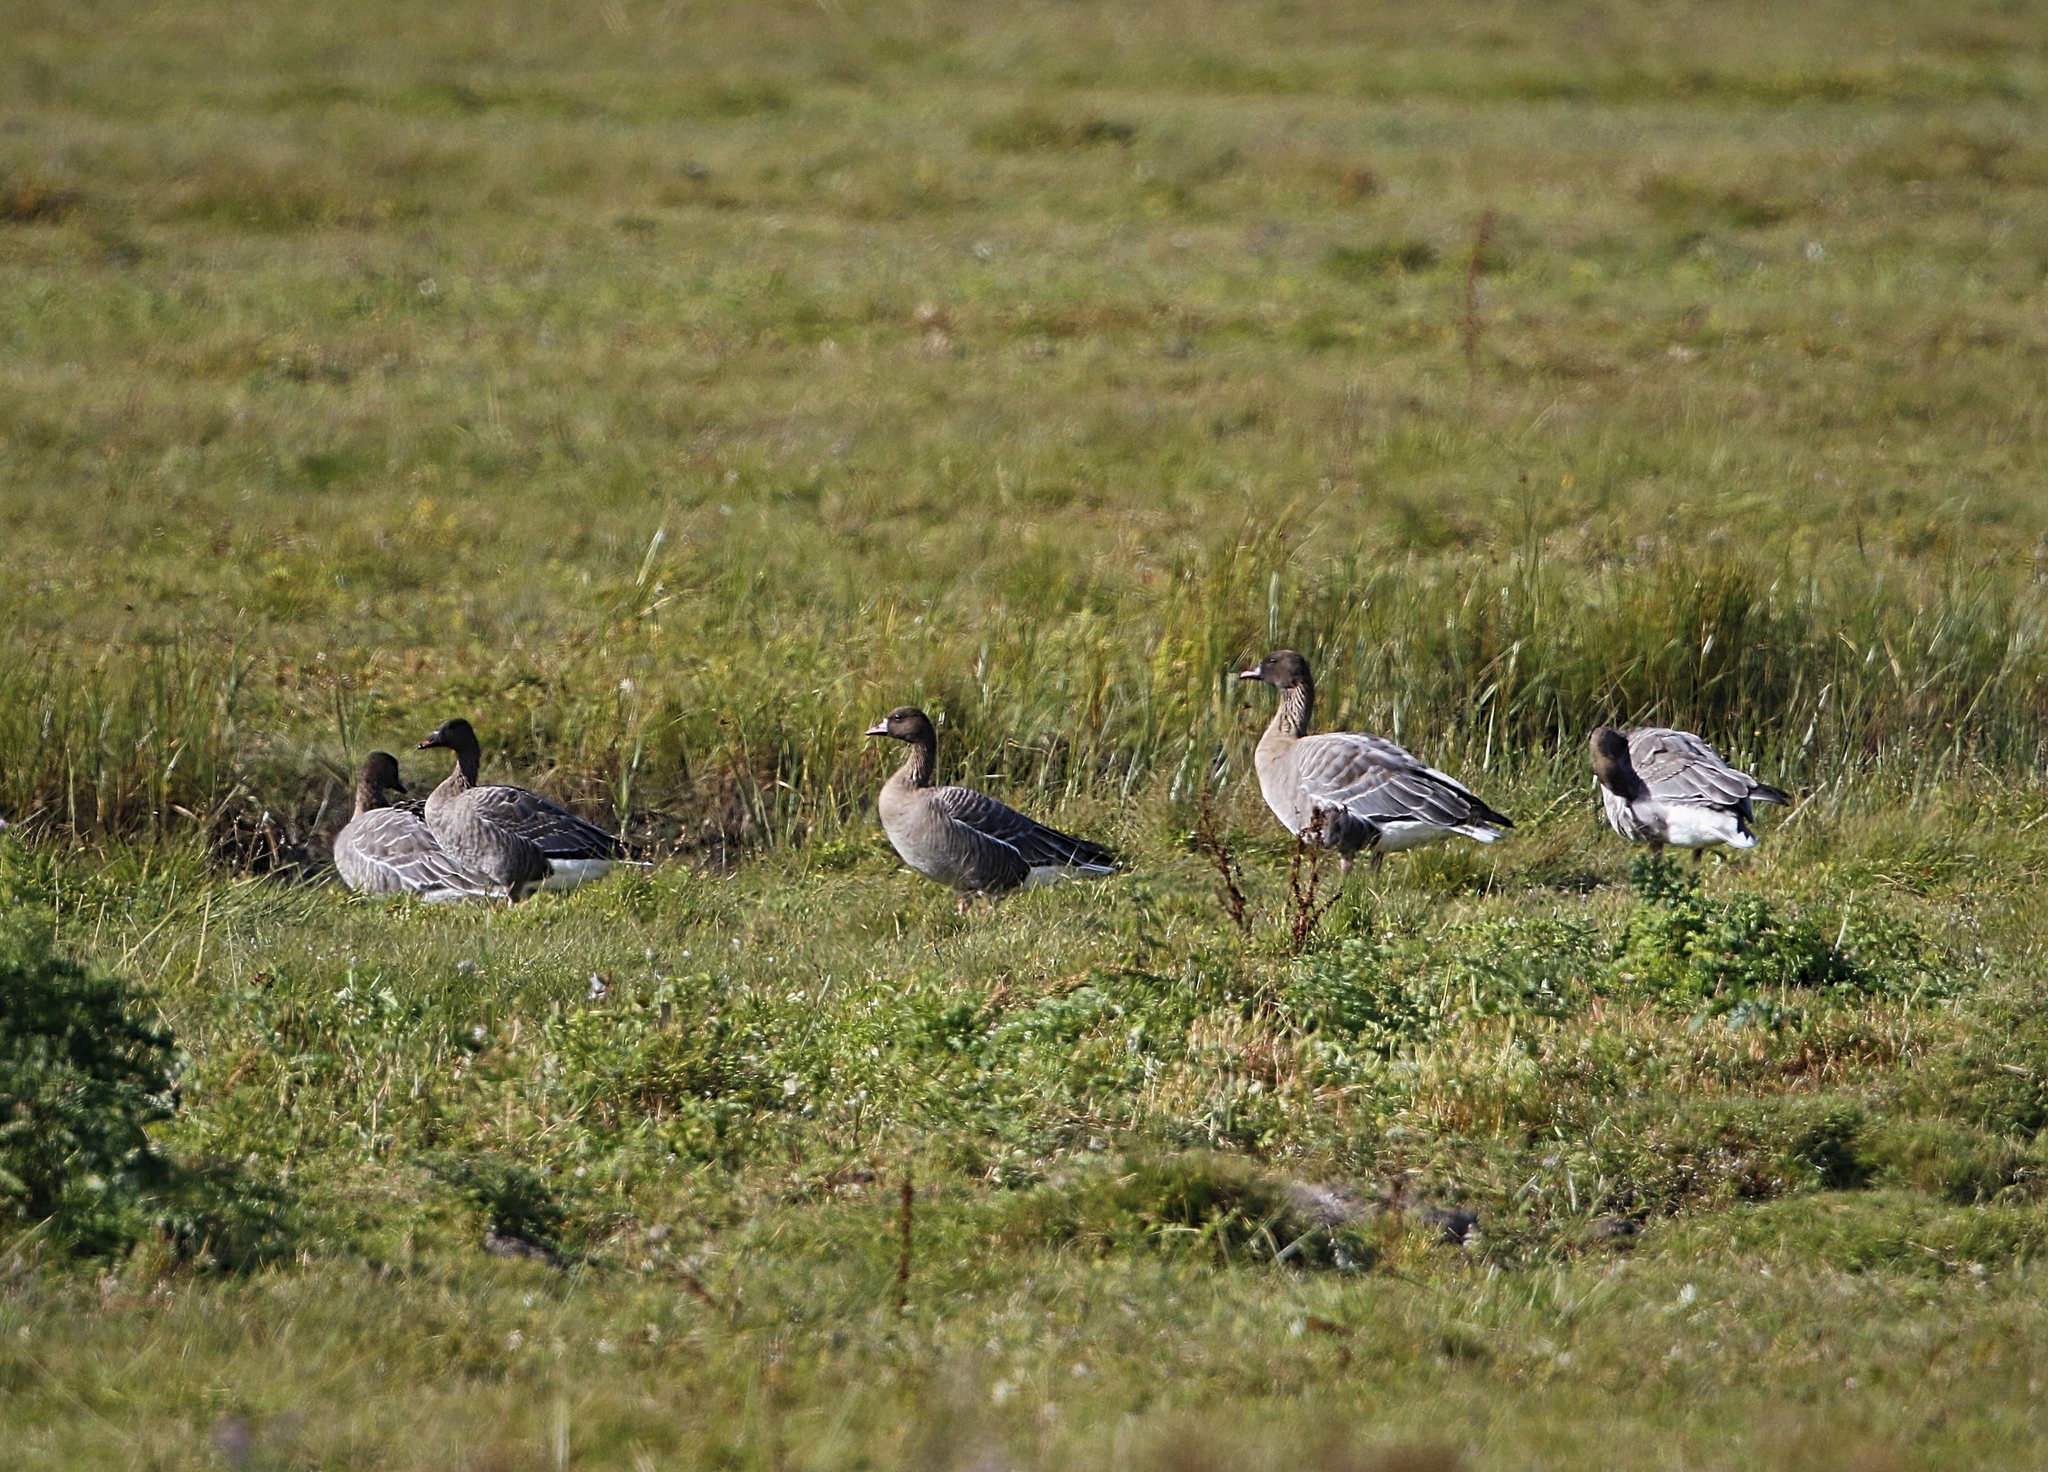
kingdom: Animalia
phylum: Chordata
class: Aves
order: Anseriformes
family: Anatidae
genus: Anser
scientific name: Anser brachyrhynchus
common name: Pink-footed goose
